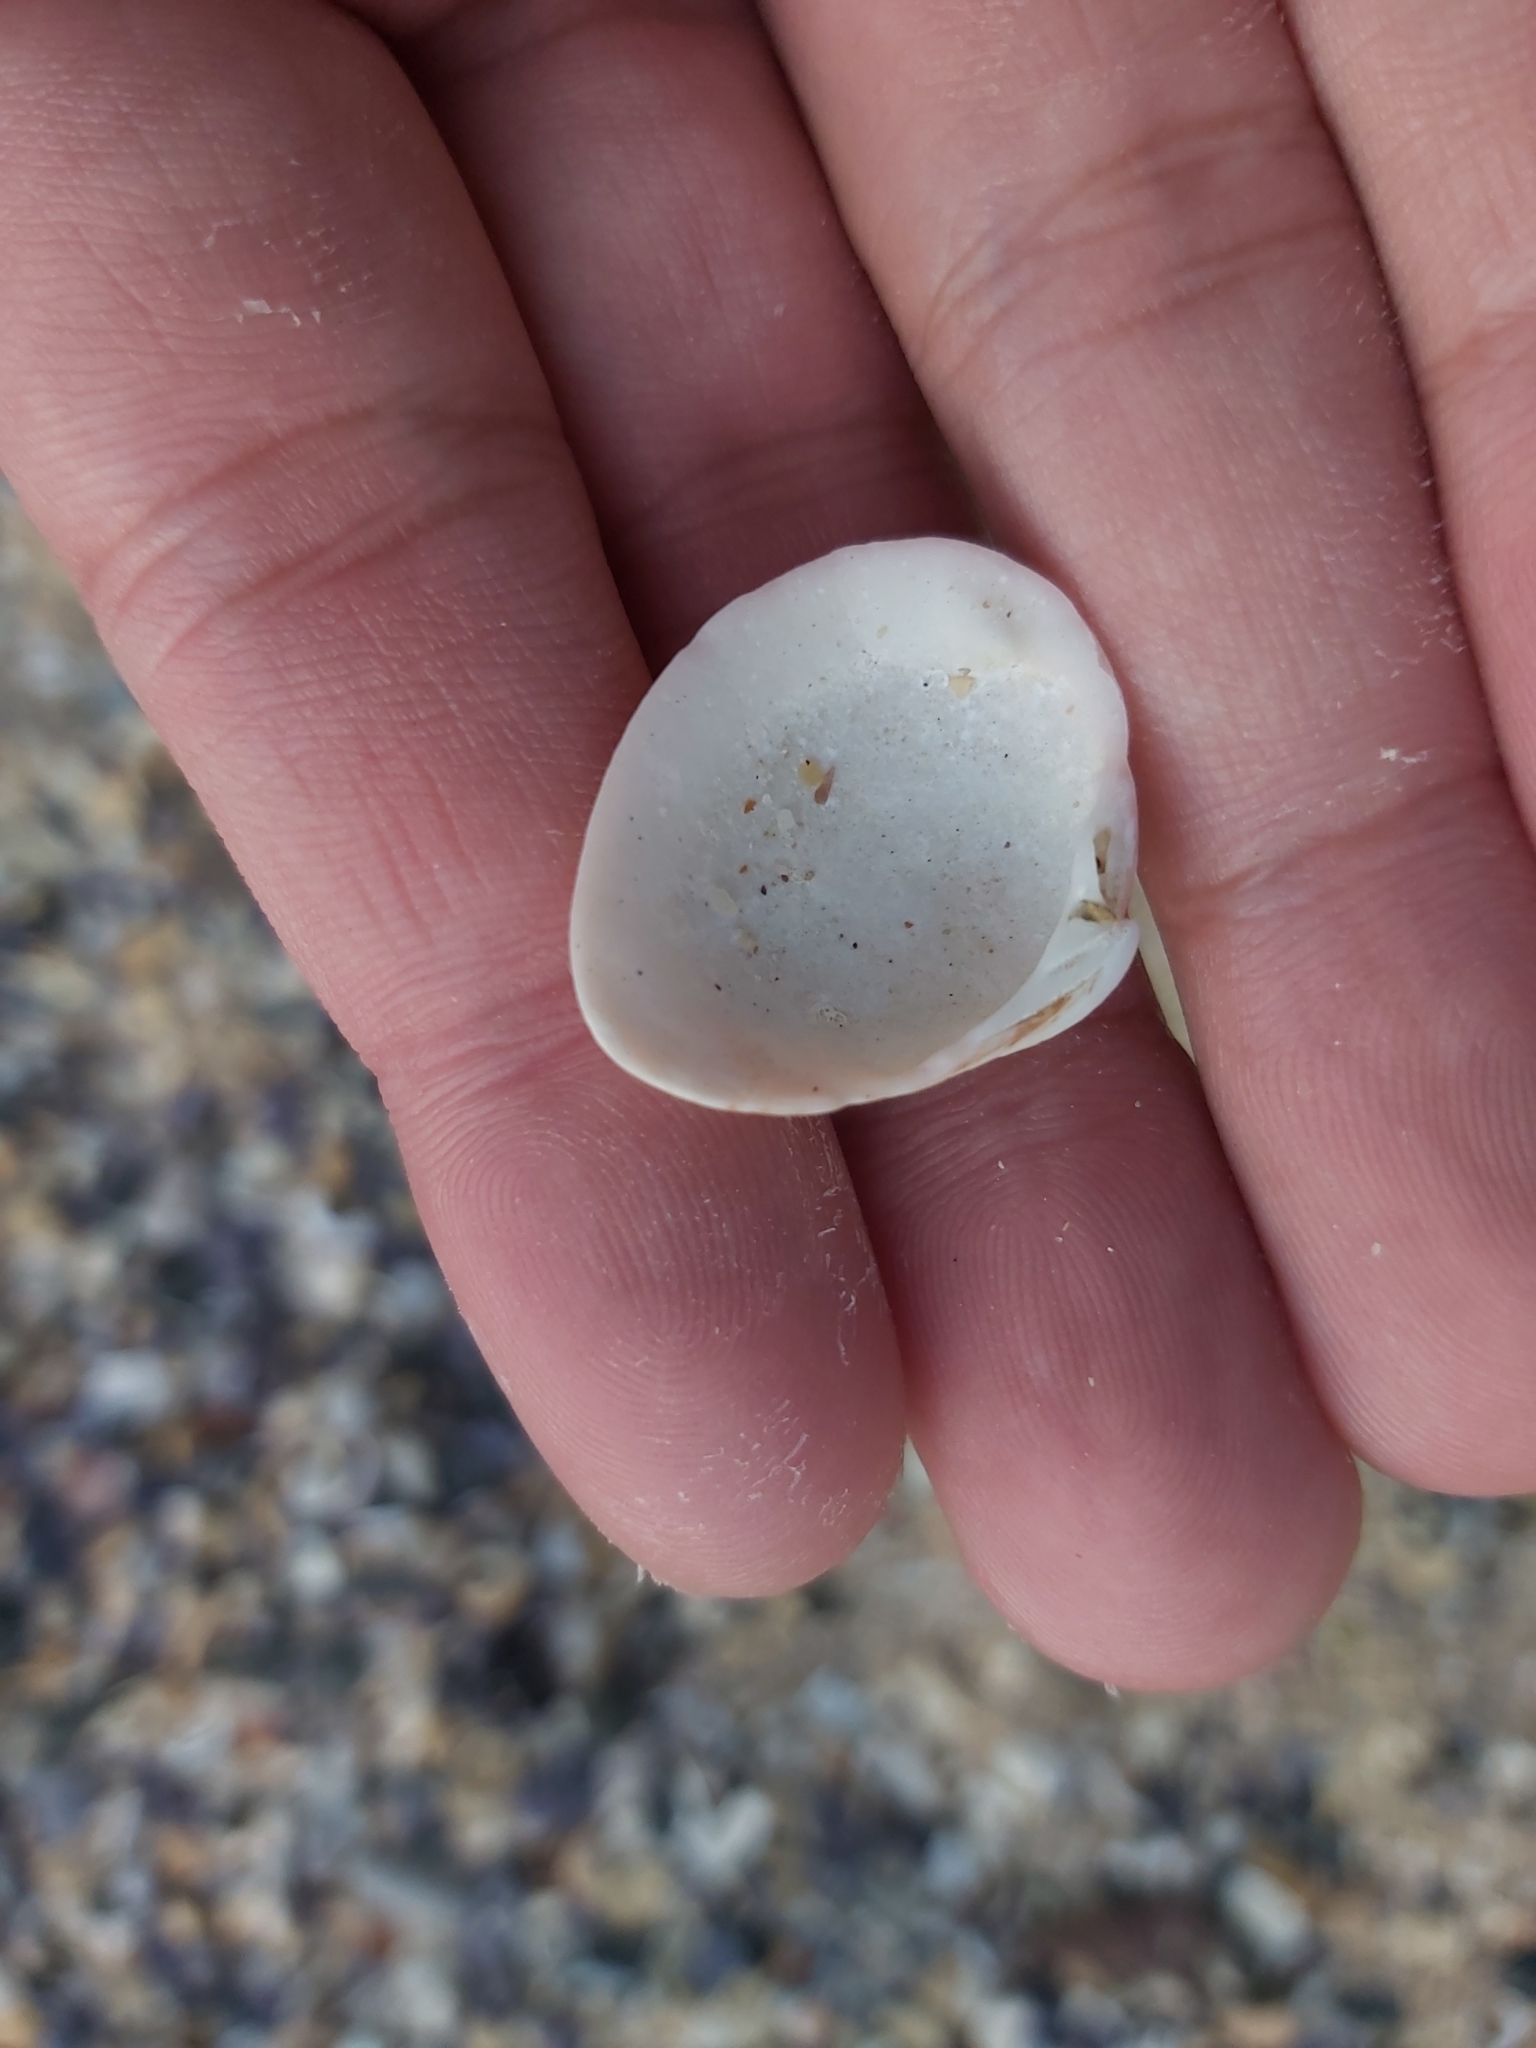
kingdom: Animalia
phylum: Mollusca
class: Bivalvia
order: Venerida
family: Veneridae
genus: Tawera
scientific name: Tawera lagopus
